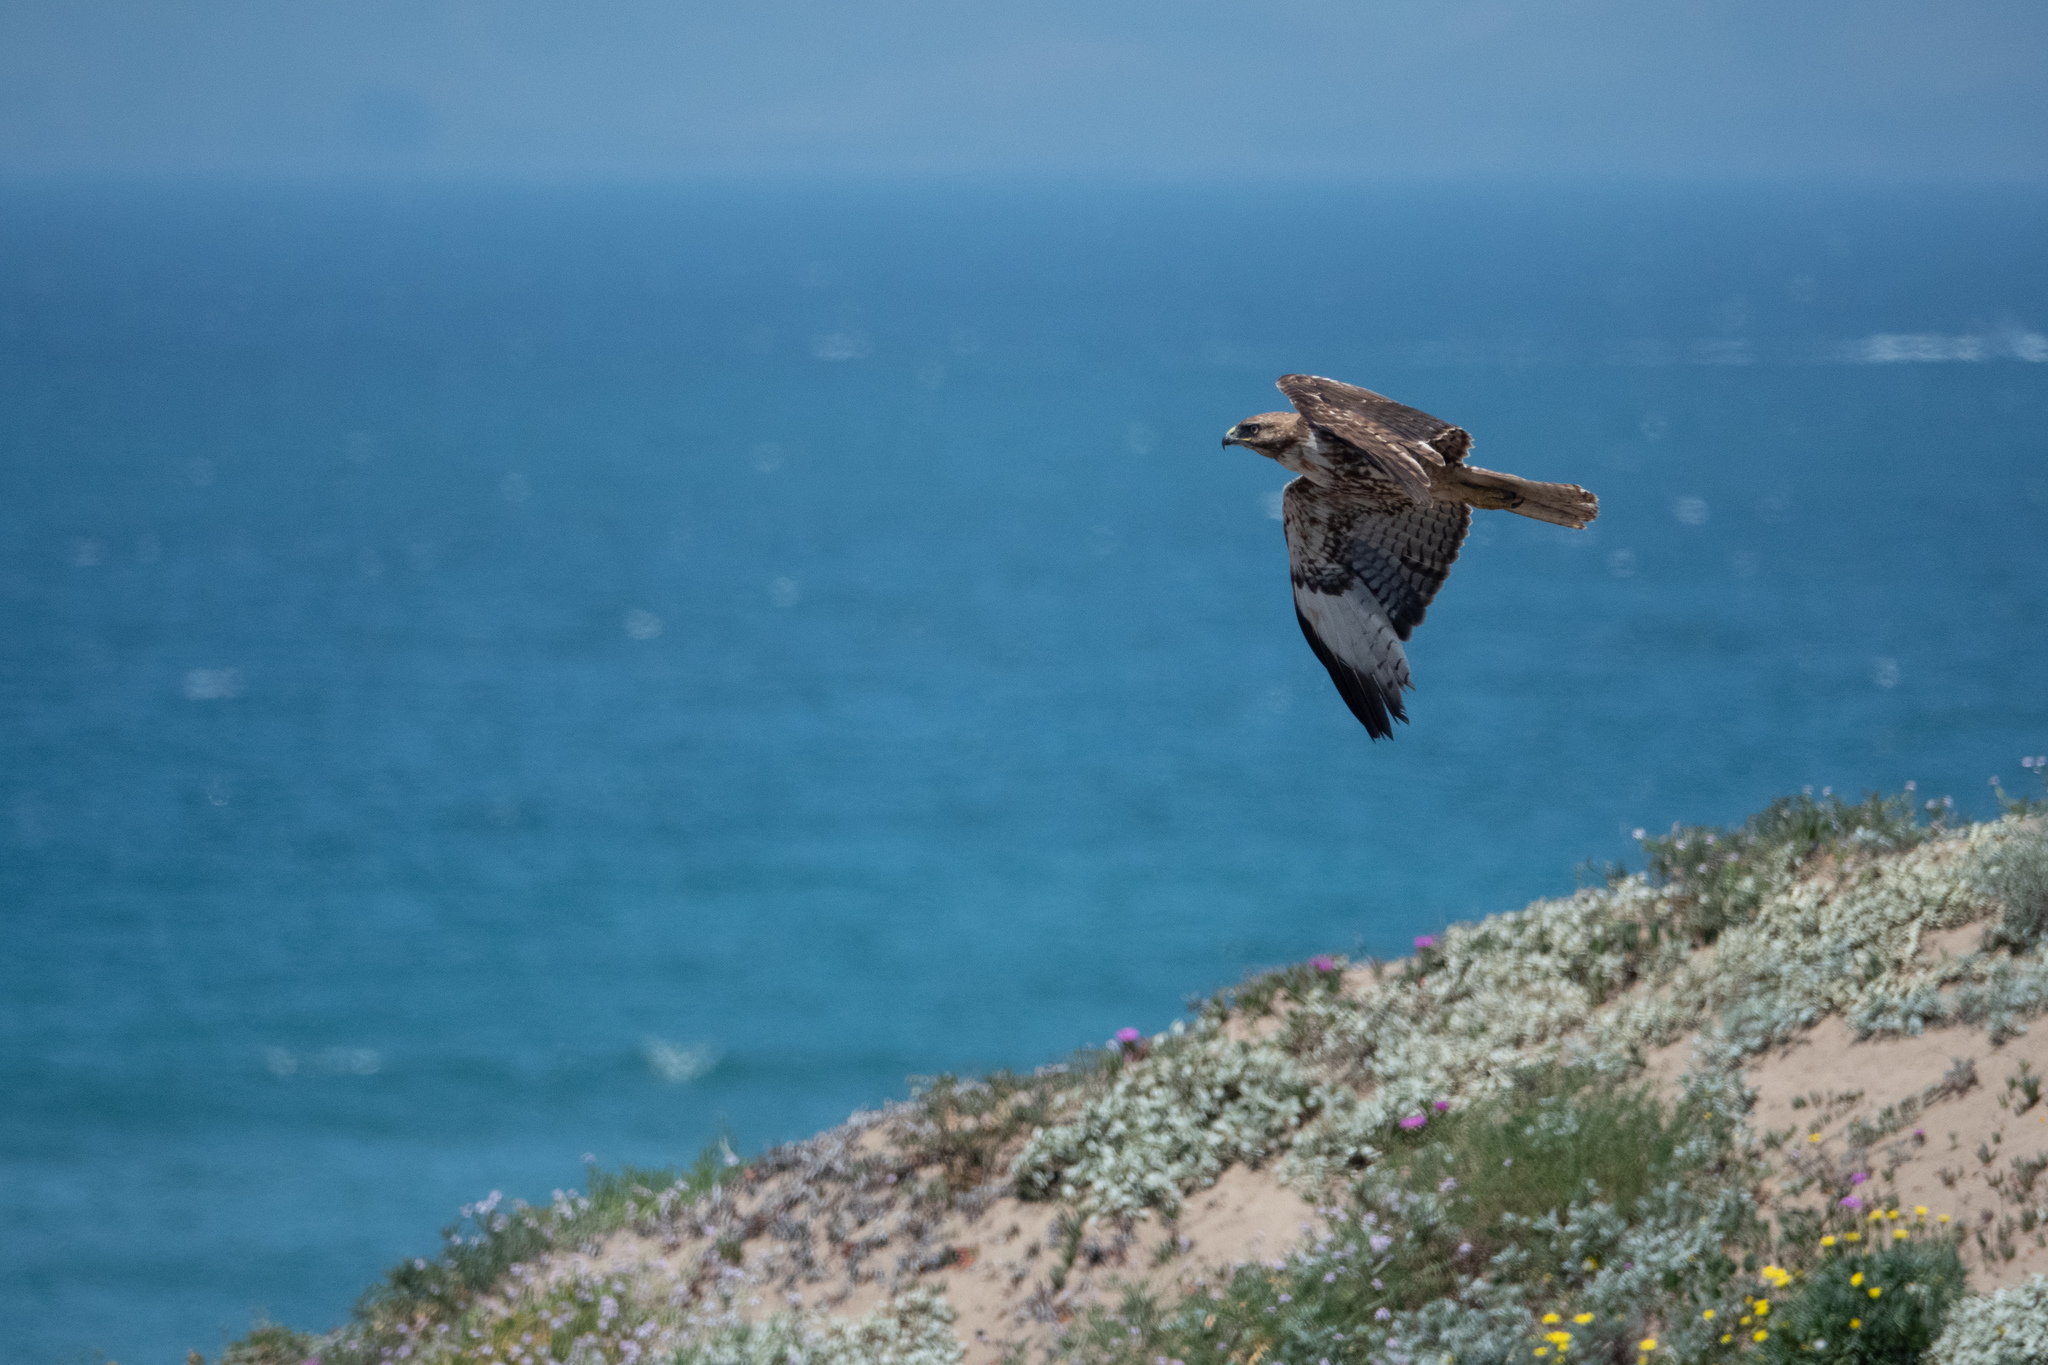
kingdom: Animalia
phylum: Chordata
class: Aves
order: Accipitriformes
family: Accipitridae
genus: Buteo
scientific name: Buteo jamaicensis
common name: Red-tailed hawk
